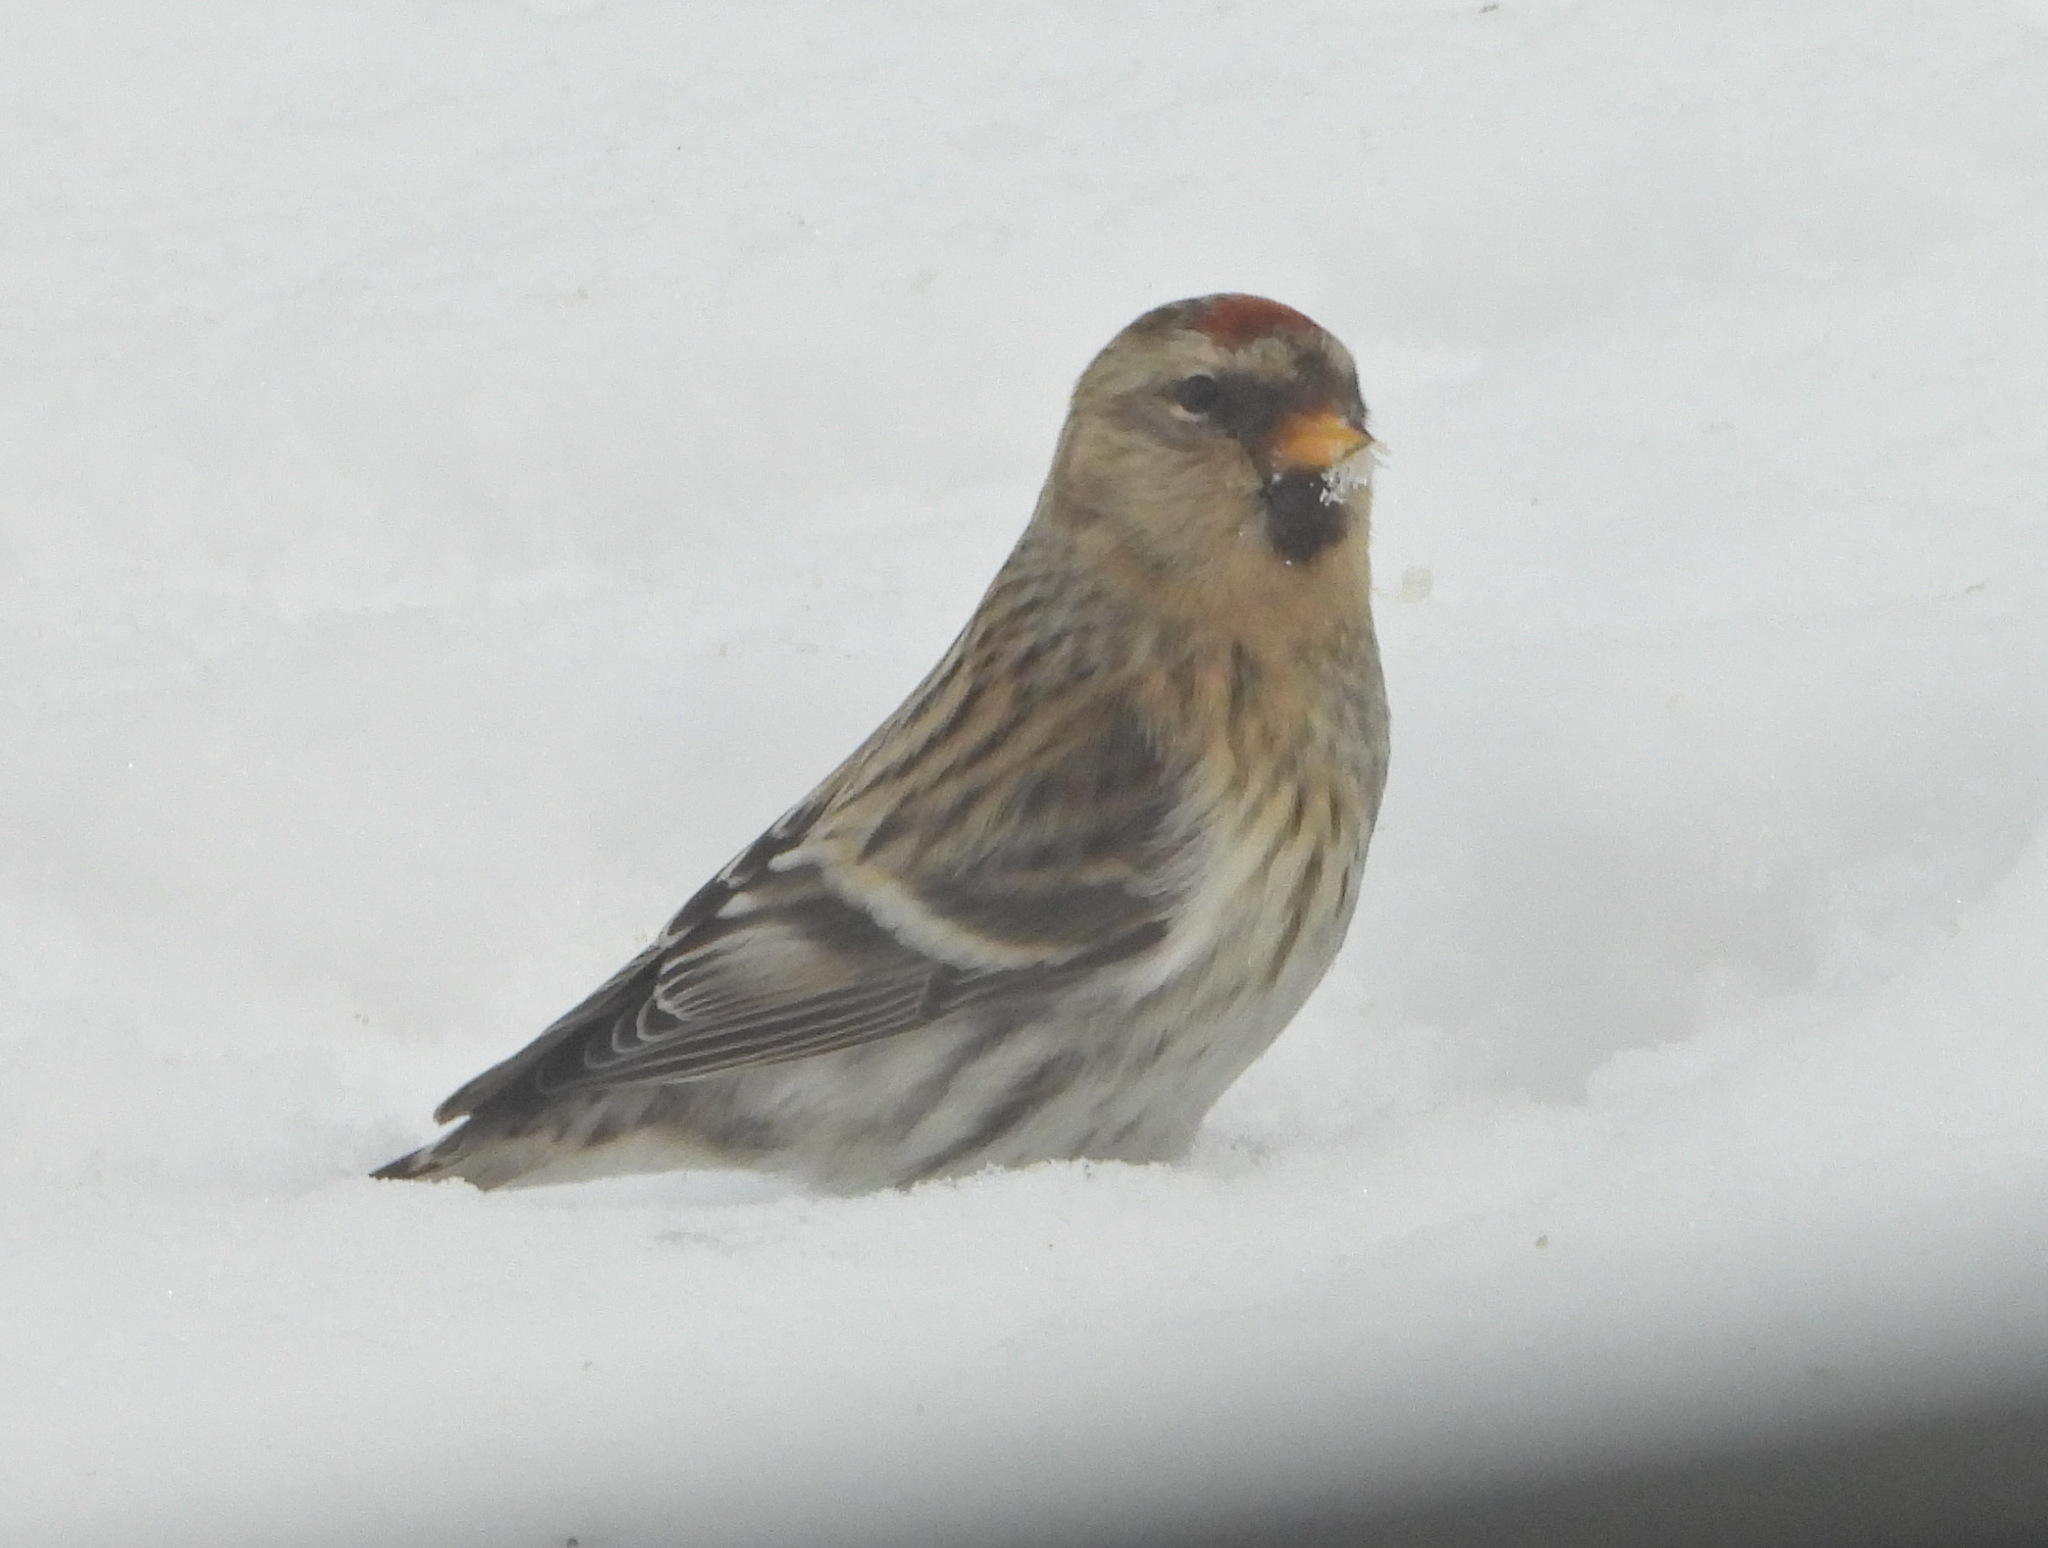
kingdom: Animalia
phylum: Chordata
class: Aves
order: Passeriformes
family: Fringillidae
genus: Acanthis
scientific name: Acanthis flammea
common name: Common redpoll
